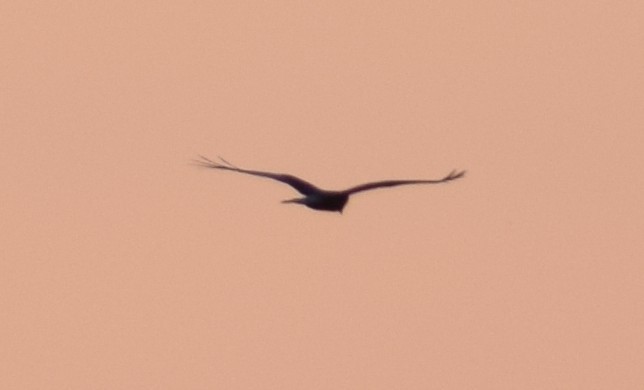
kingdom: Animalia
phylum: Chordata
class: Aves
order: Accipitriformes
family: Accipitridae
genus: Circus
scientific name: Circus aeruginosus
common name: Western marsh harrier
